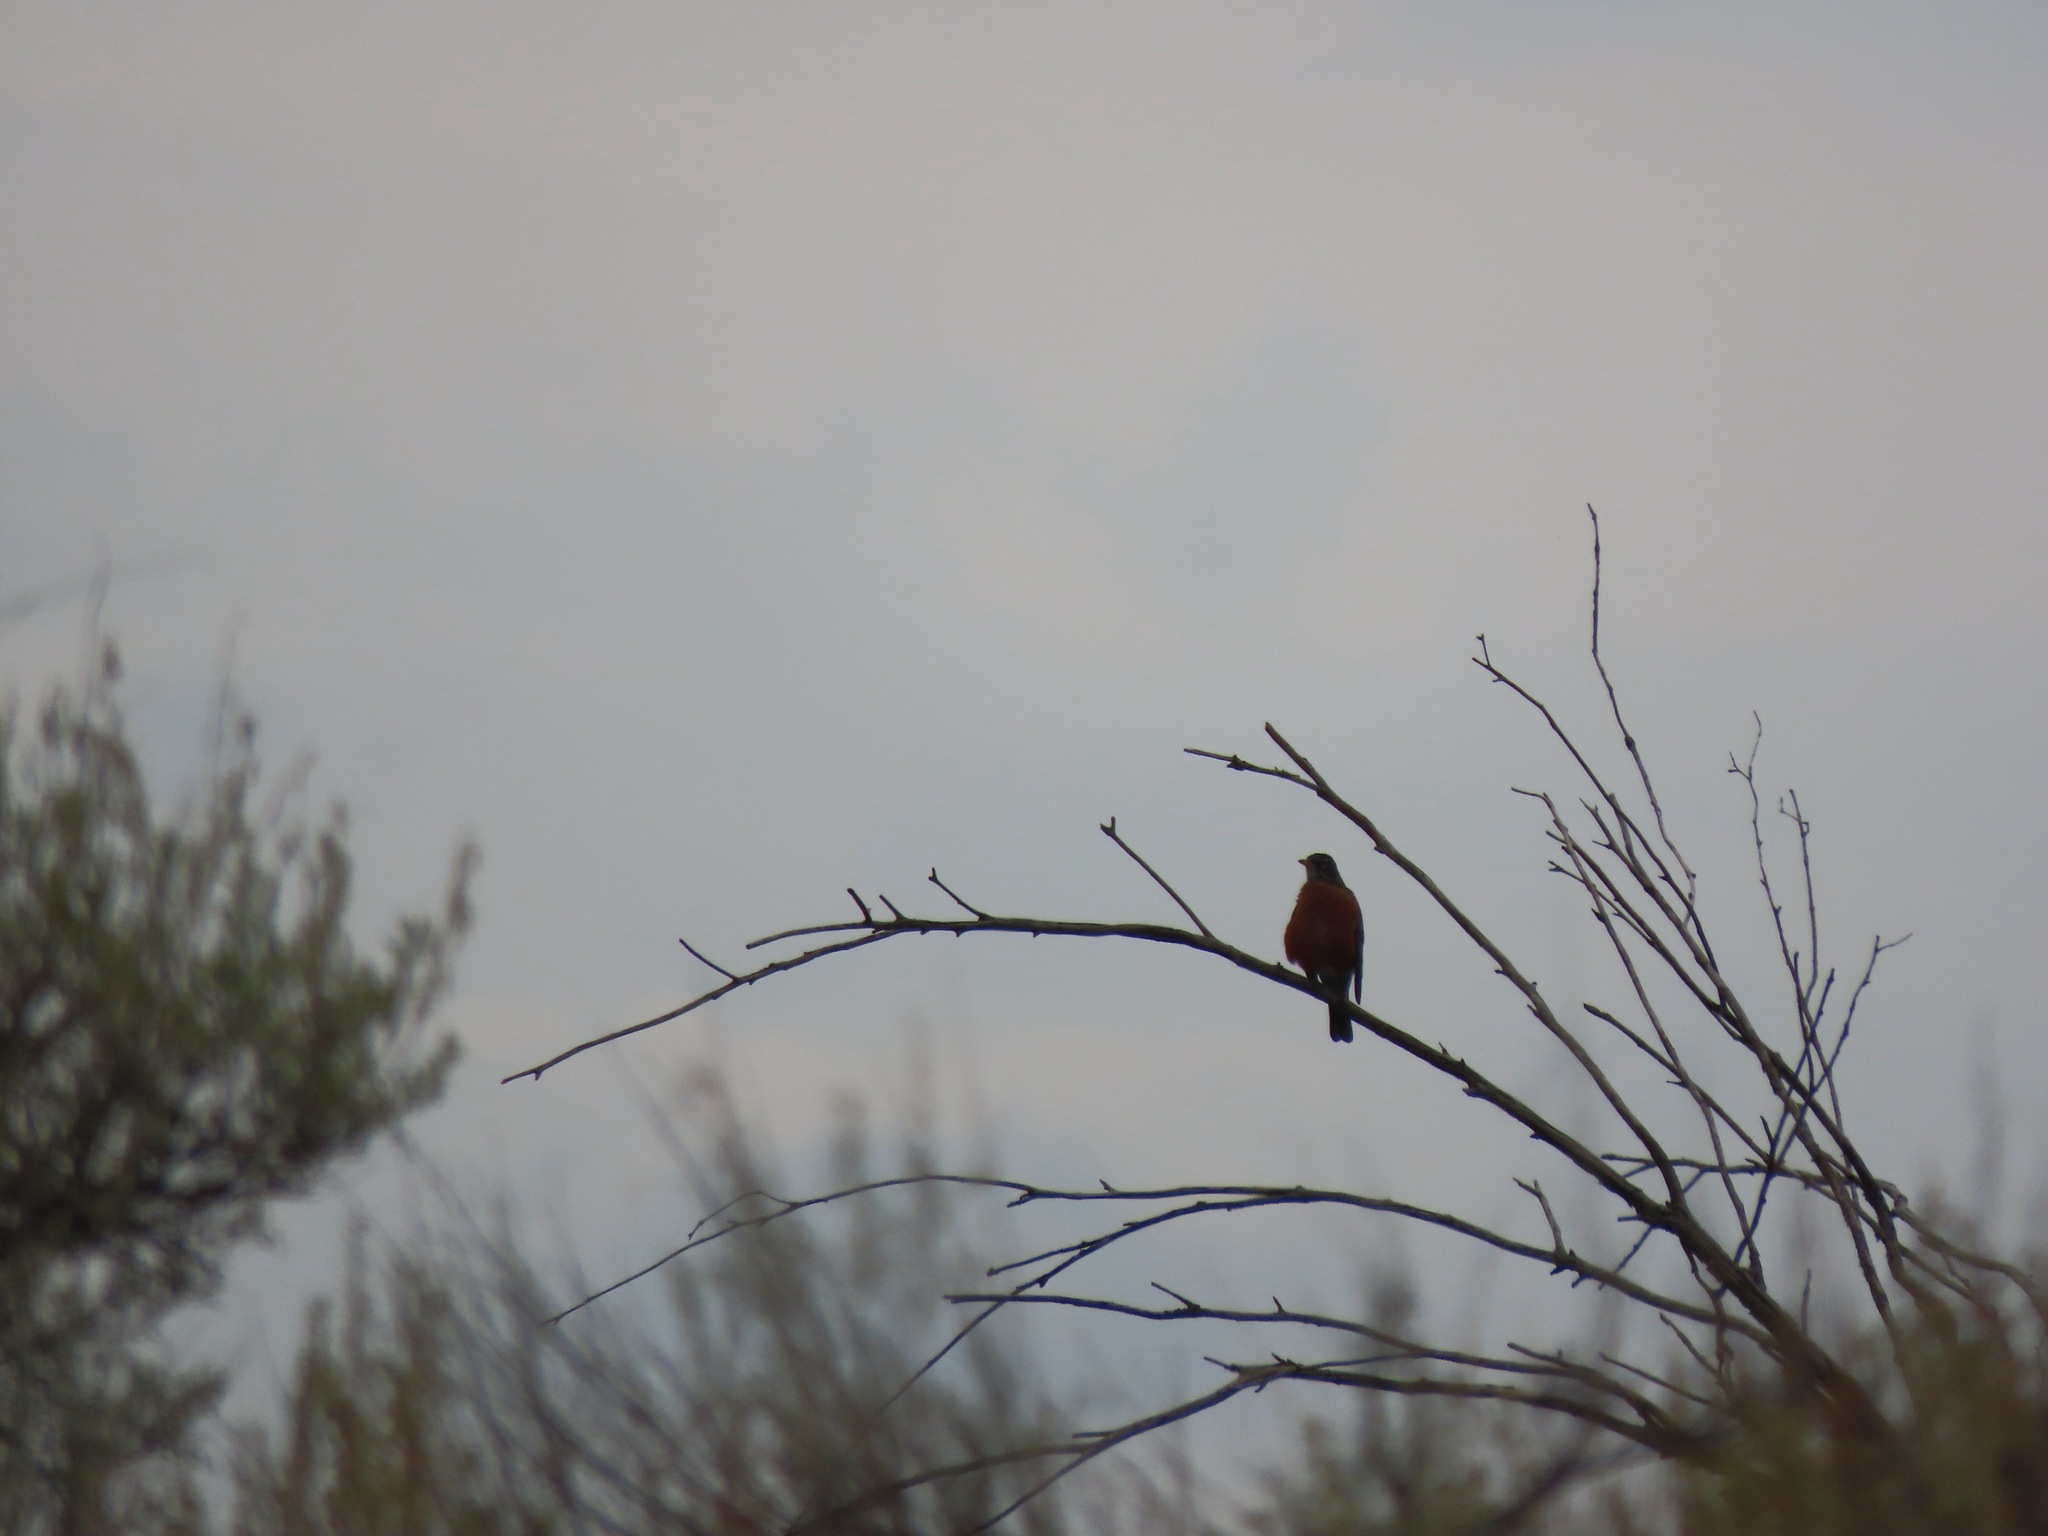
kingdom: Animalia
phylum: Chordata
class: Aves
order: Passeriformes
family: Turdidae
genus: Turdus
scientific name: Turdus migratorius
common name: American robin
